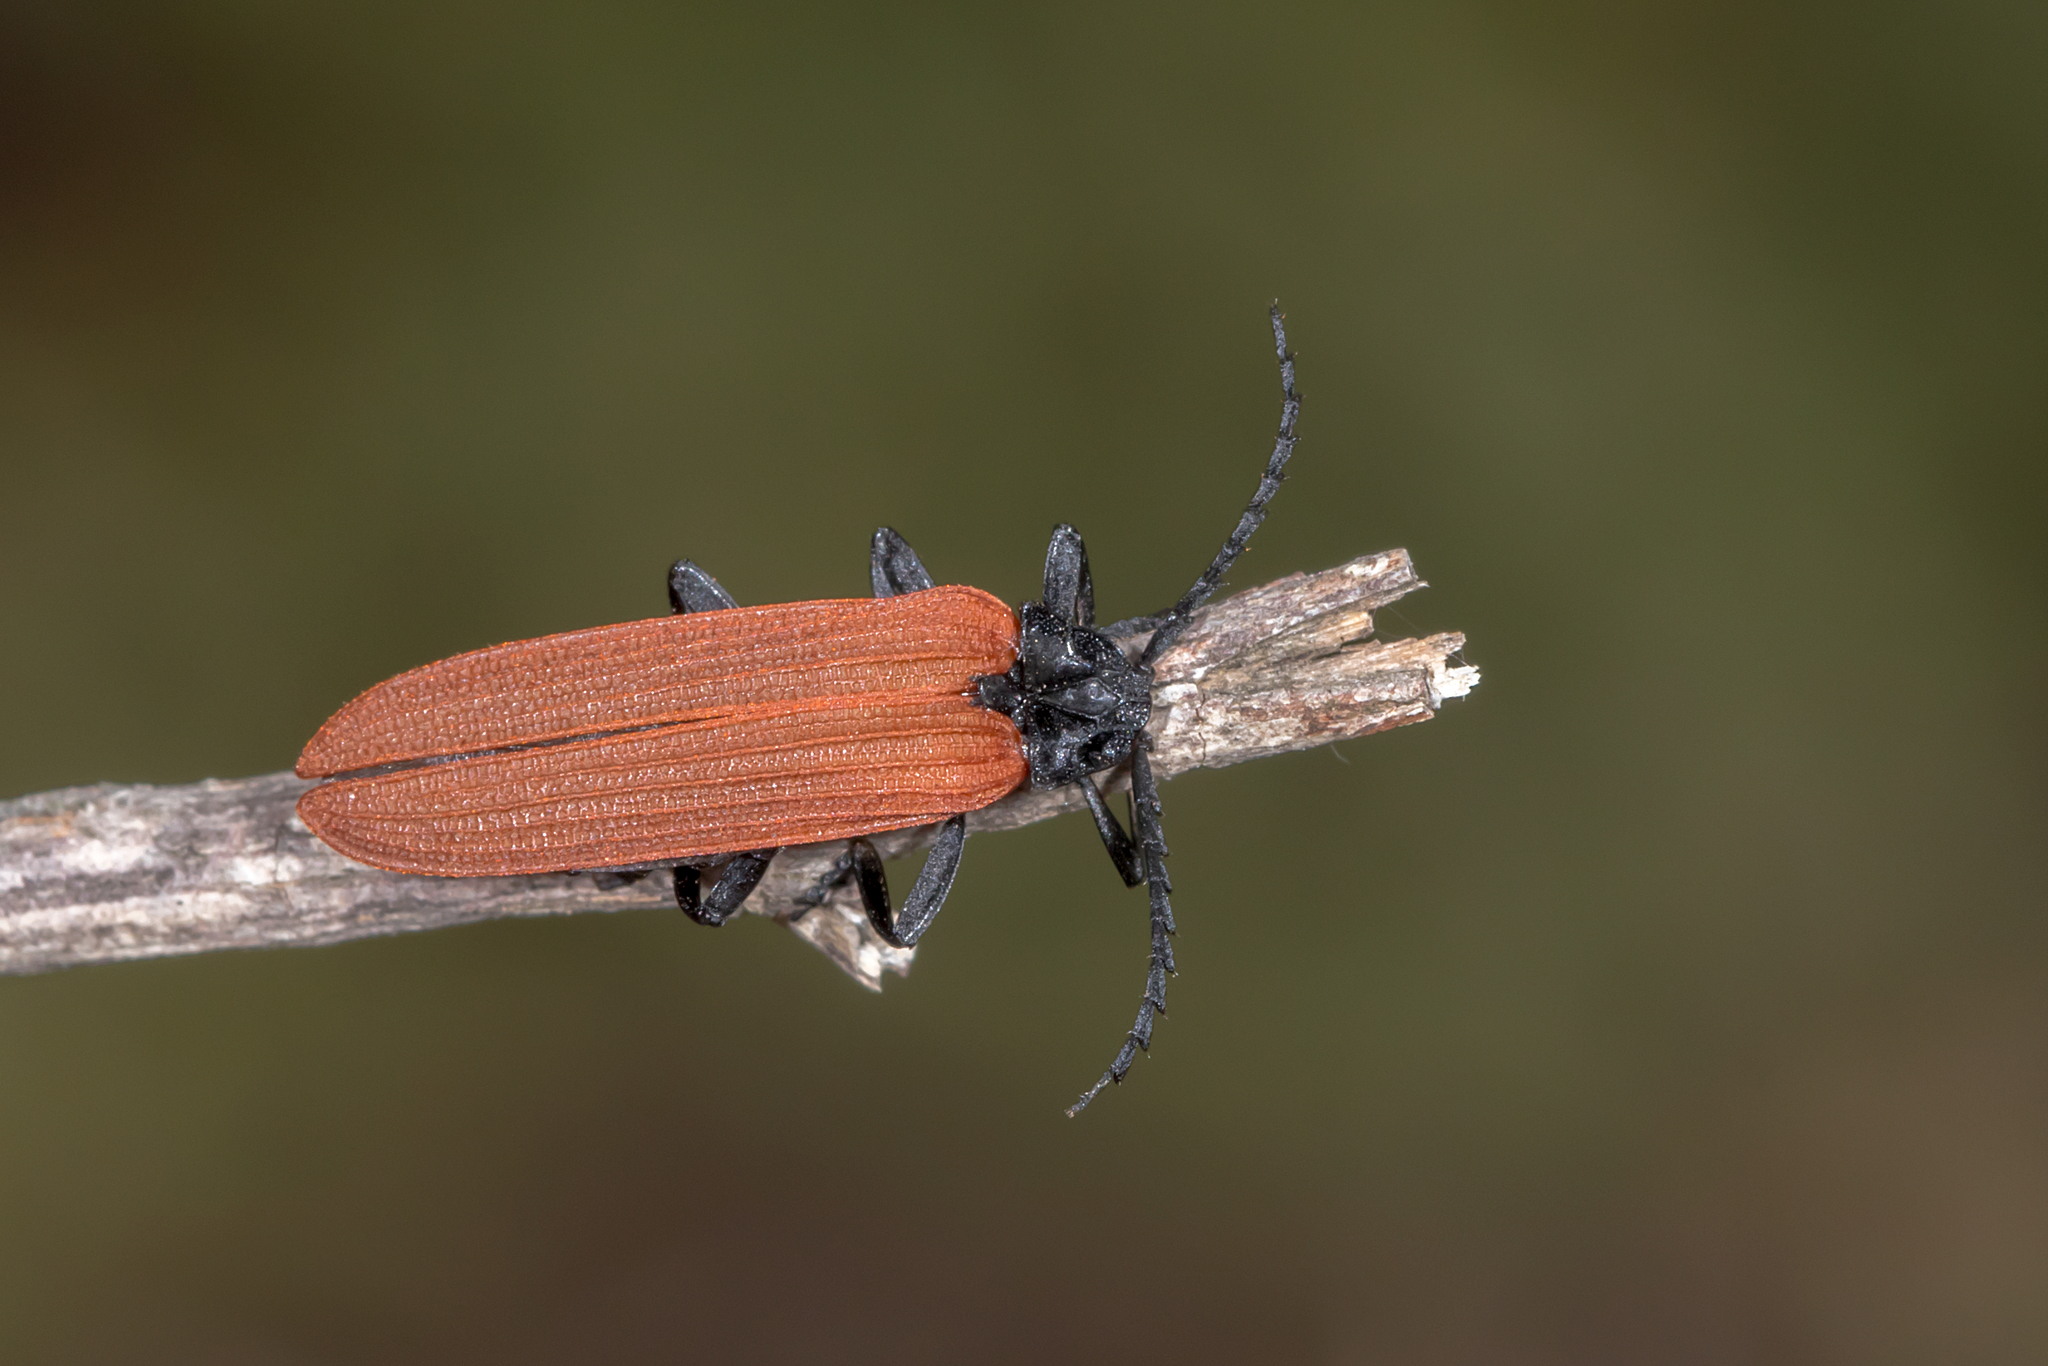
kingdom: Animalia
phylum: Arthropoda
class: Insecta
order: Coleoptera
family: Lycidae
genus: Porrostoma
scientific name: Porrostoma rhipidium
